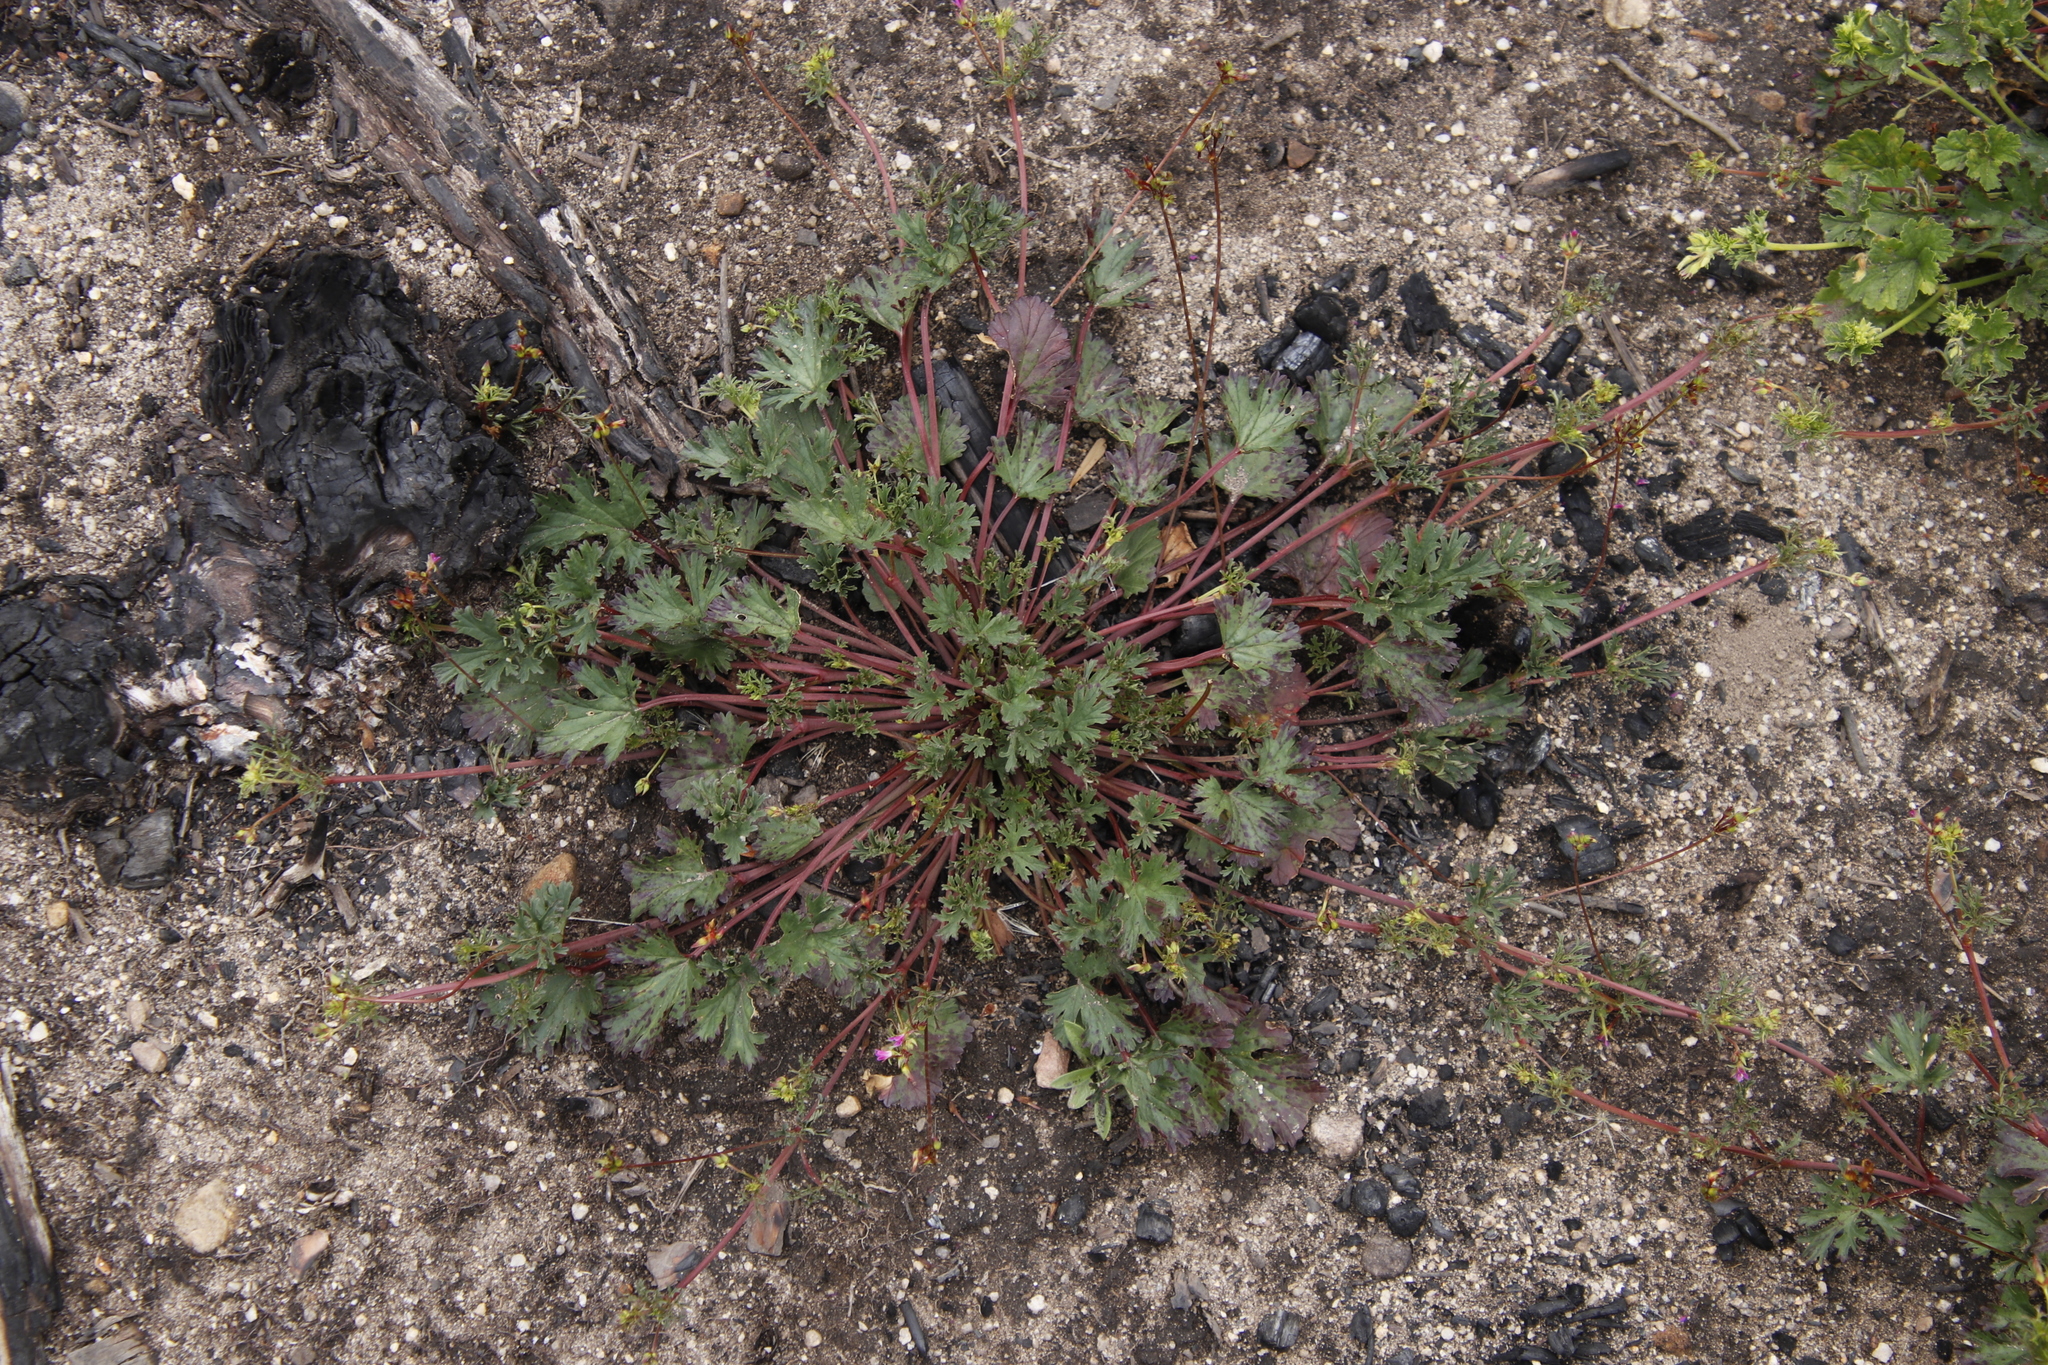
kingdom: Plantae
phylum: Tracheophyta
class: Magnoliopsida
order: Geraniales
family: Geraniaceae
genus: Pelargonium
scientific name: Pelargonium grossularioides
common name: Gooseberry geranium
